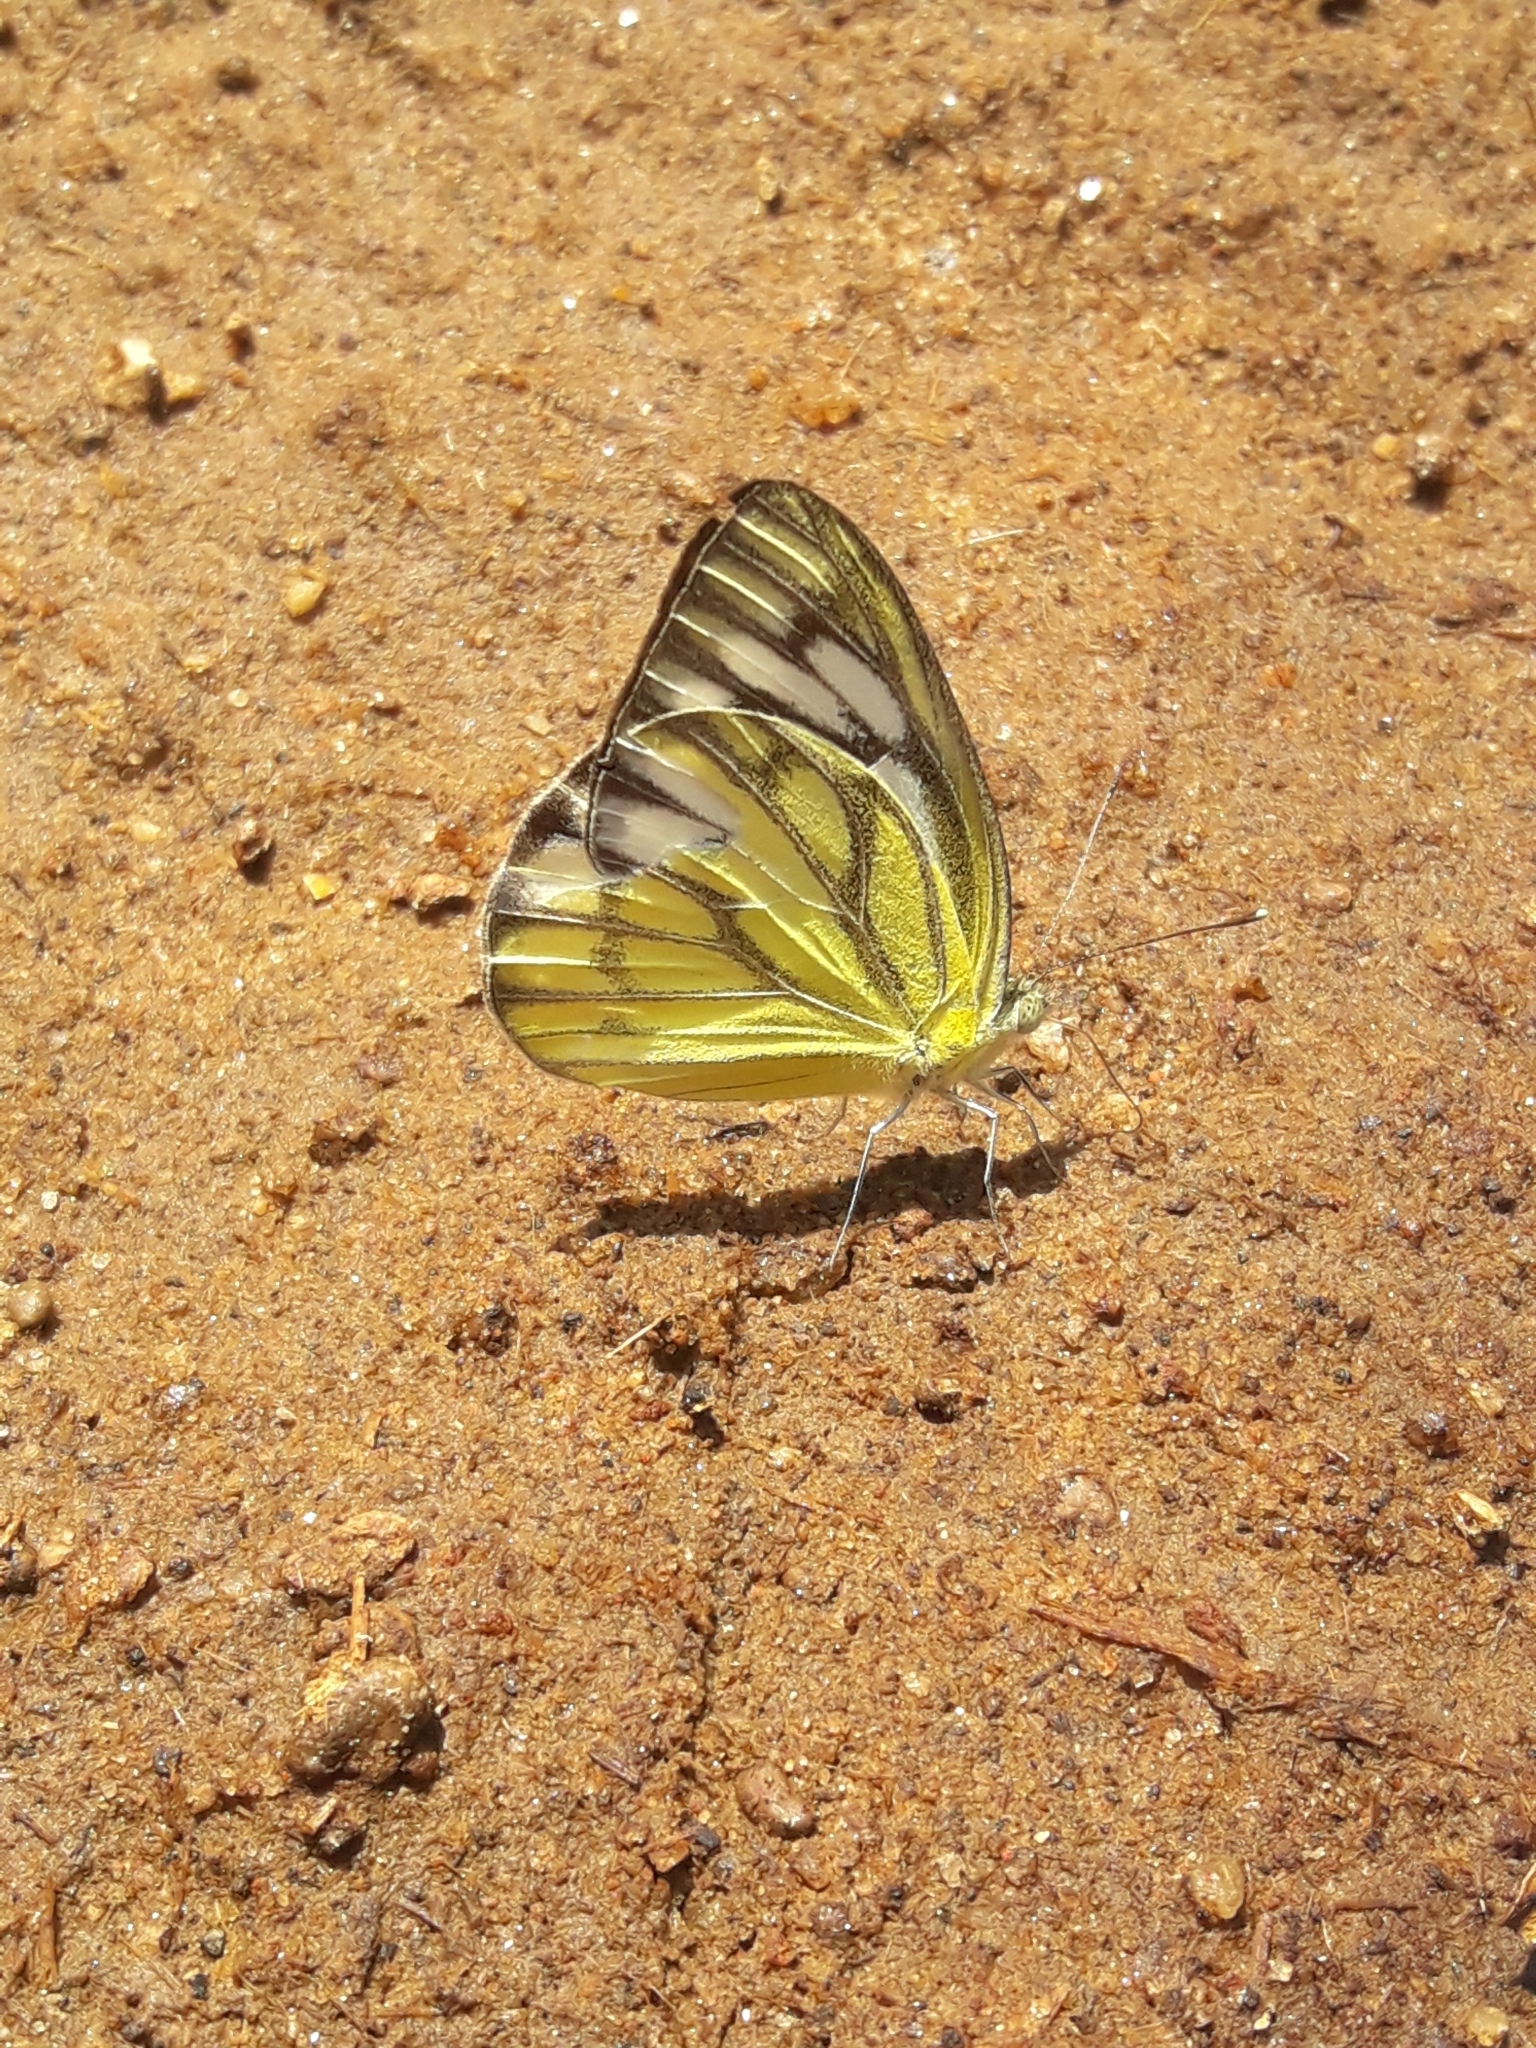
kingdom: Animalia
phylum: Arthropoda
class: Insecta
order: Lepidoptera
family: Pieridae
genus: Cepora
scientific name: Cepora nerissa
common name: Common gull
